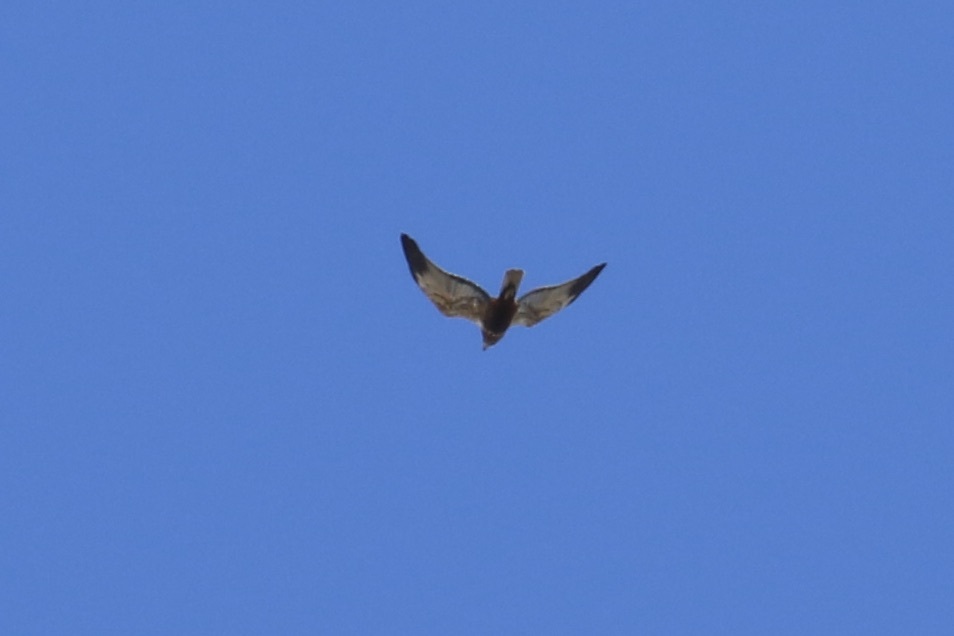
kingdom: Animalia
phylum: Chordata
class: Aves
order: Accipitriformes
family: Accipitridae
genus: Circus
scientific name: Circus aeruginosus
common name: Western marsh harrier
